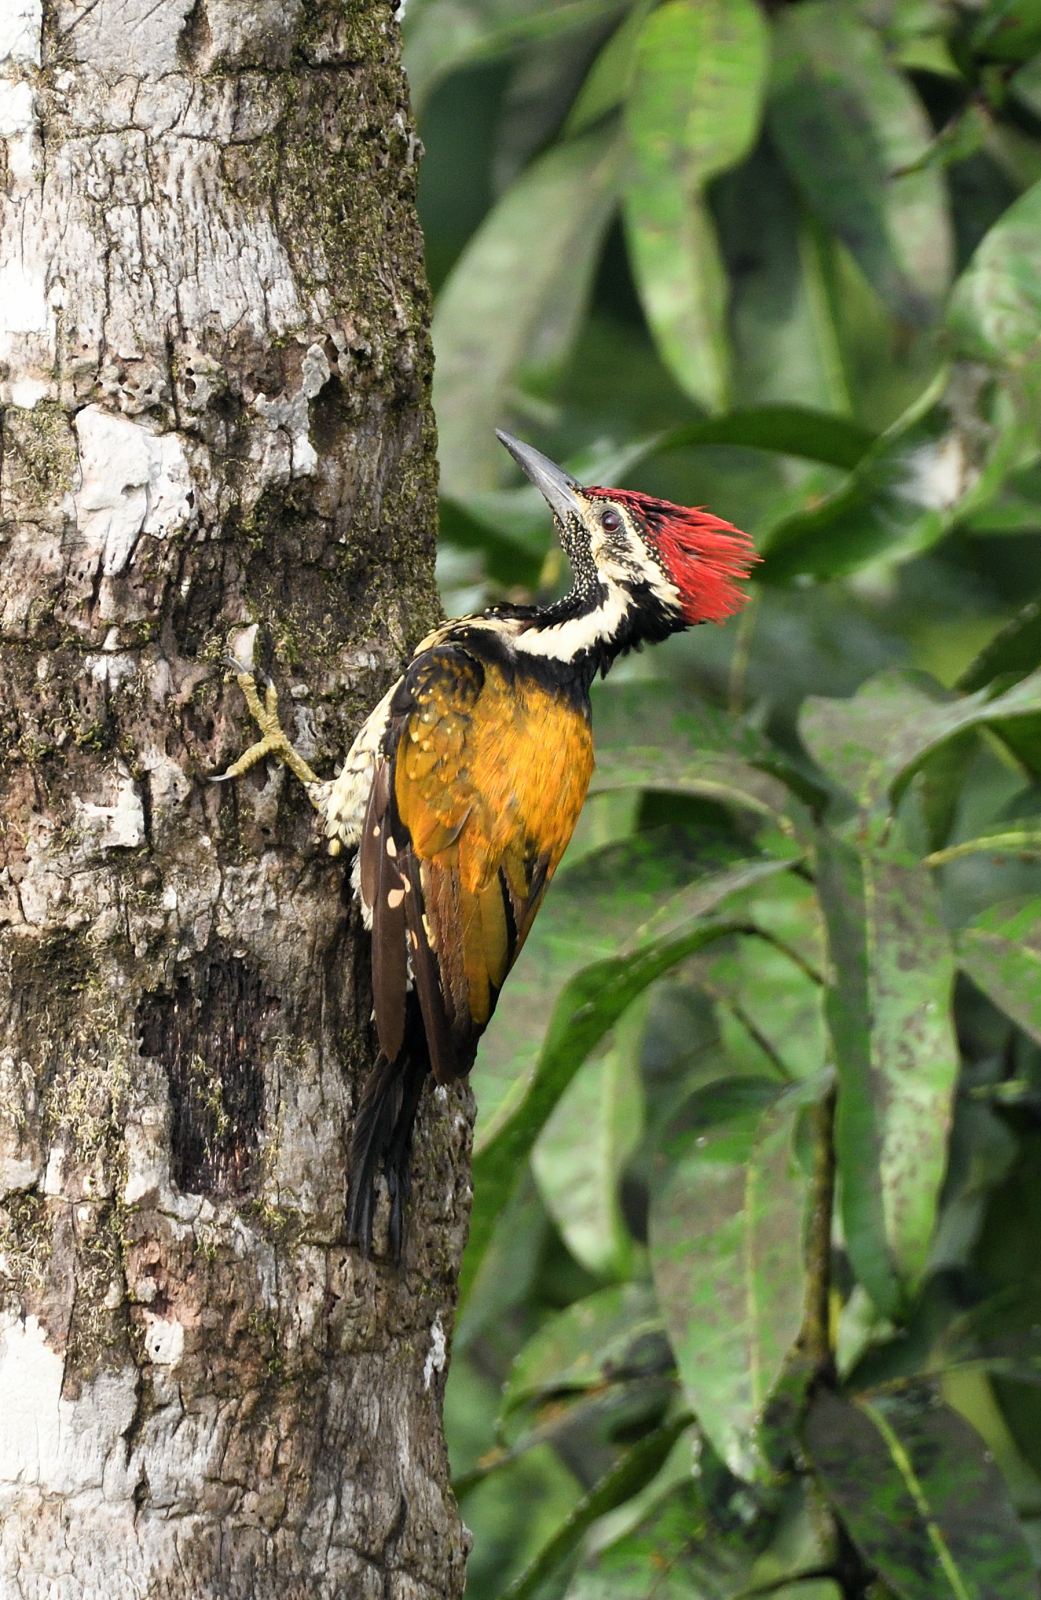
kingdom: Animalia
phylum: Chordata
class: Aves
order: Piciformes
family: Picidae
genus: Dinopium
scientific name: Dinopium benghalense
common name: Black-rumped flameback
